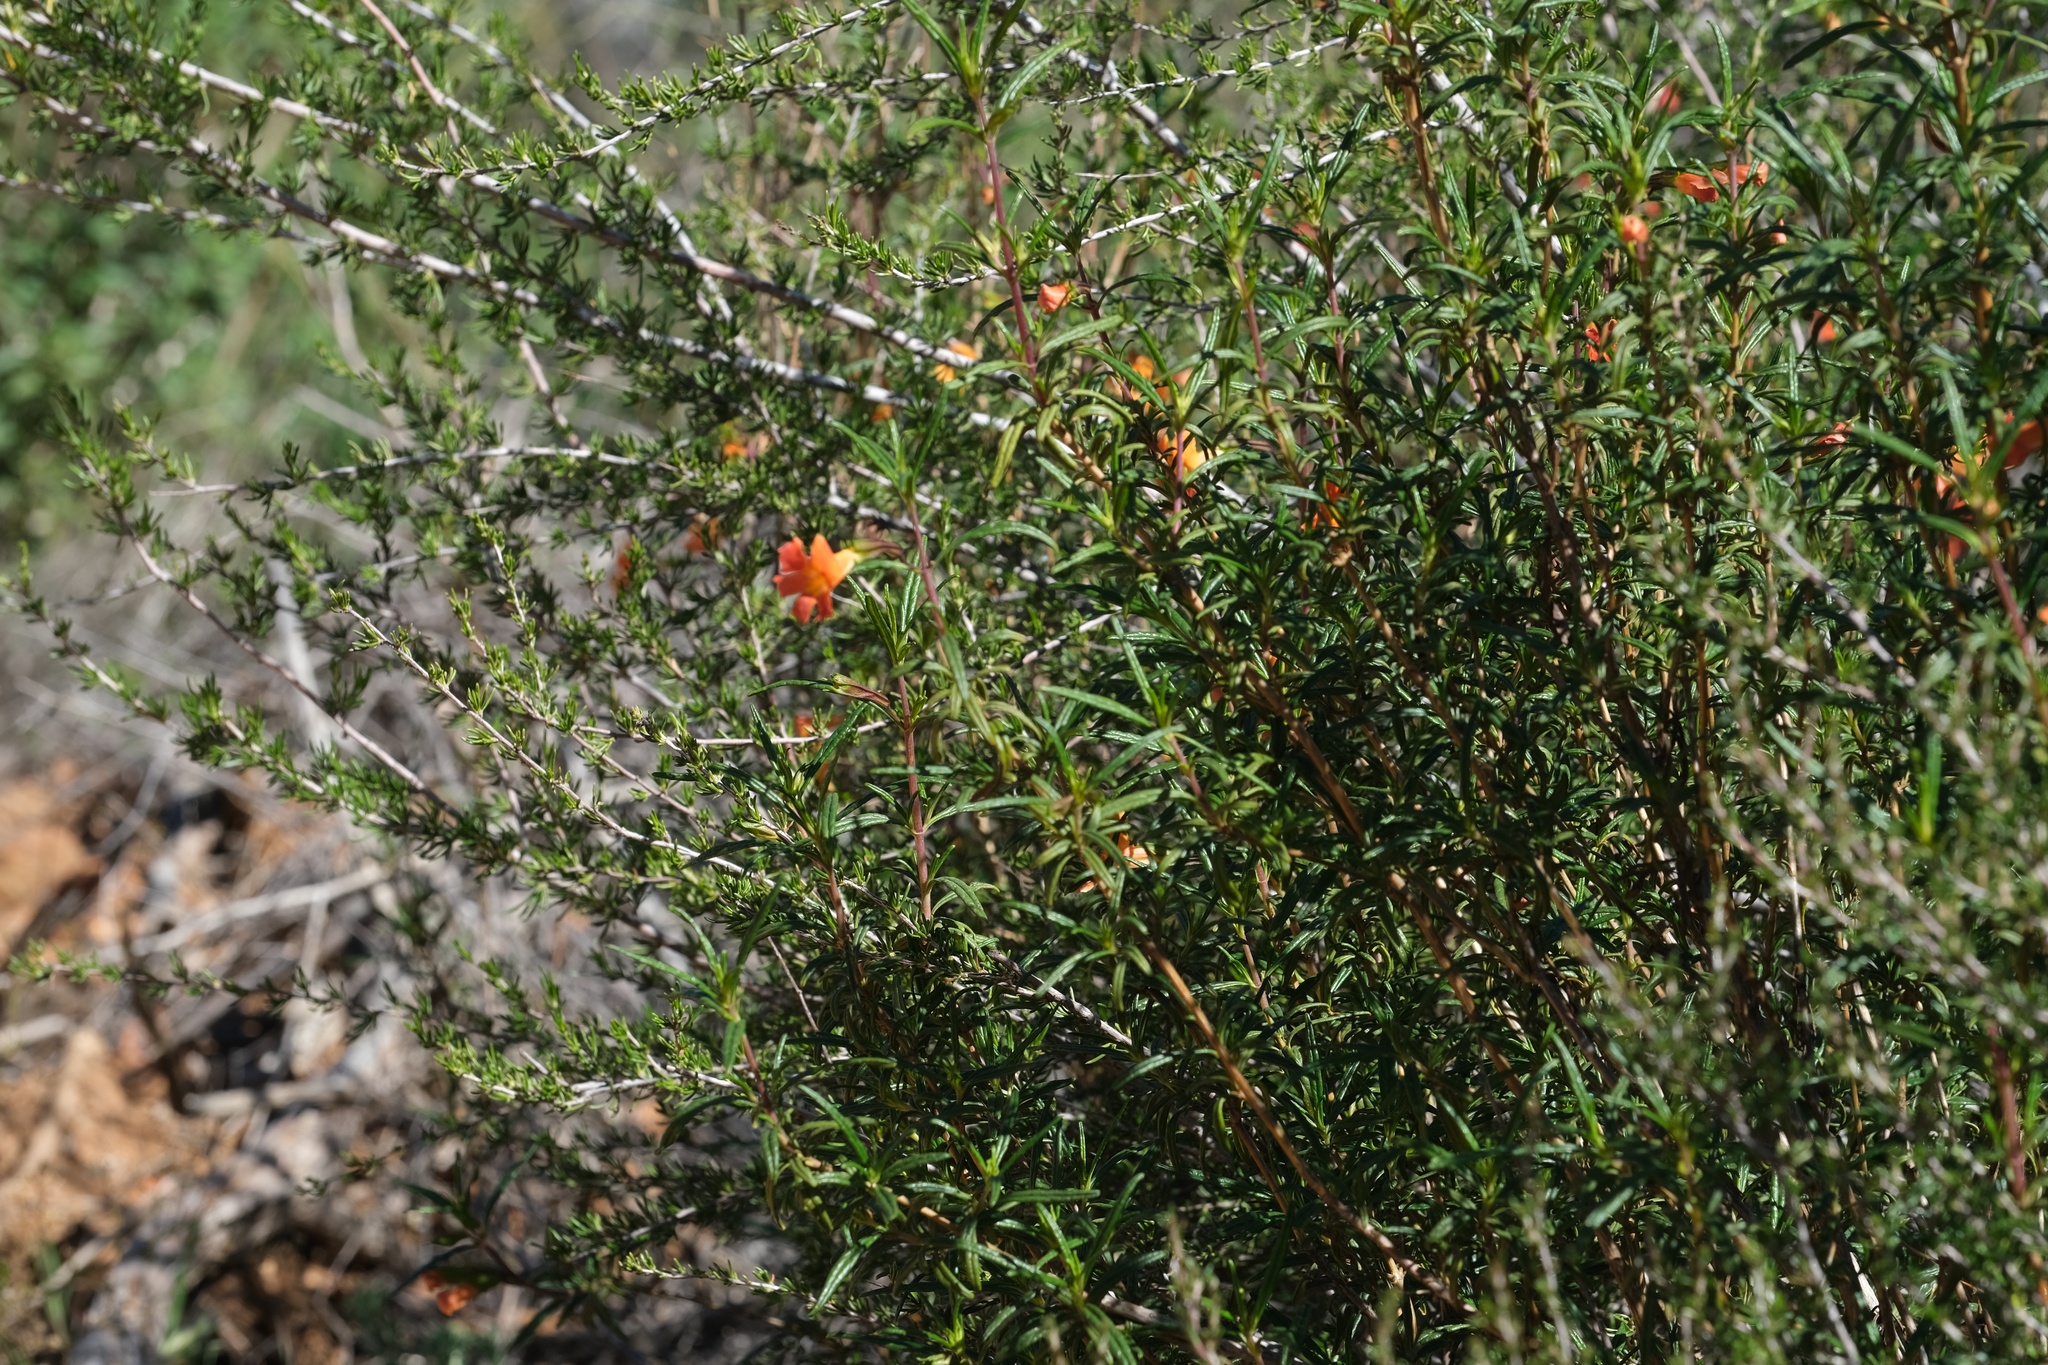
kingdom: Plantae
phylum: Tracheophyta
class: Magnoliopsida
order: Lamiales
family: Phrymaceae
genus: Diplacus
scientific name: Diplacus australis
